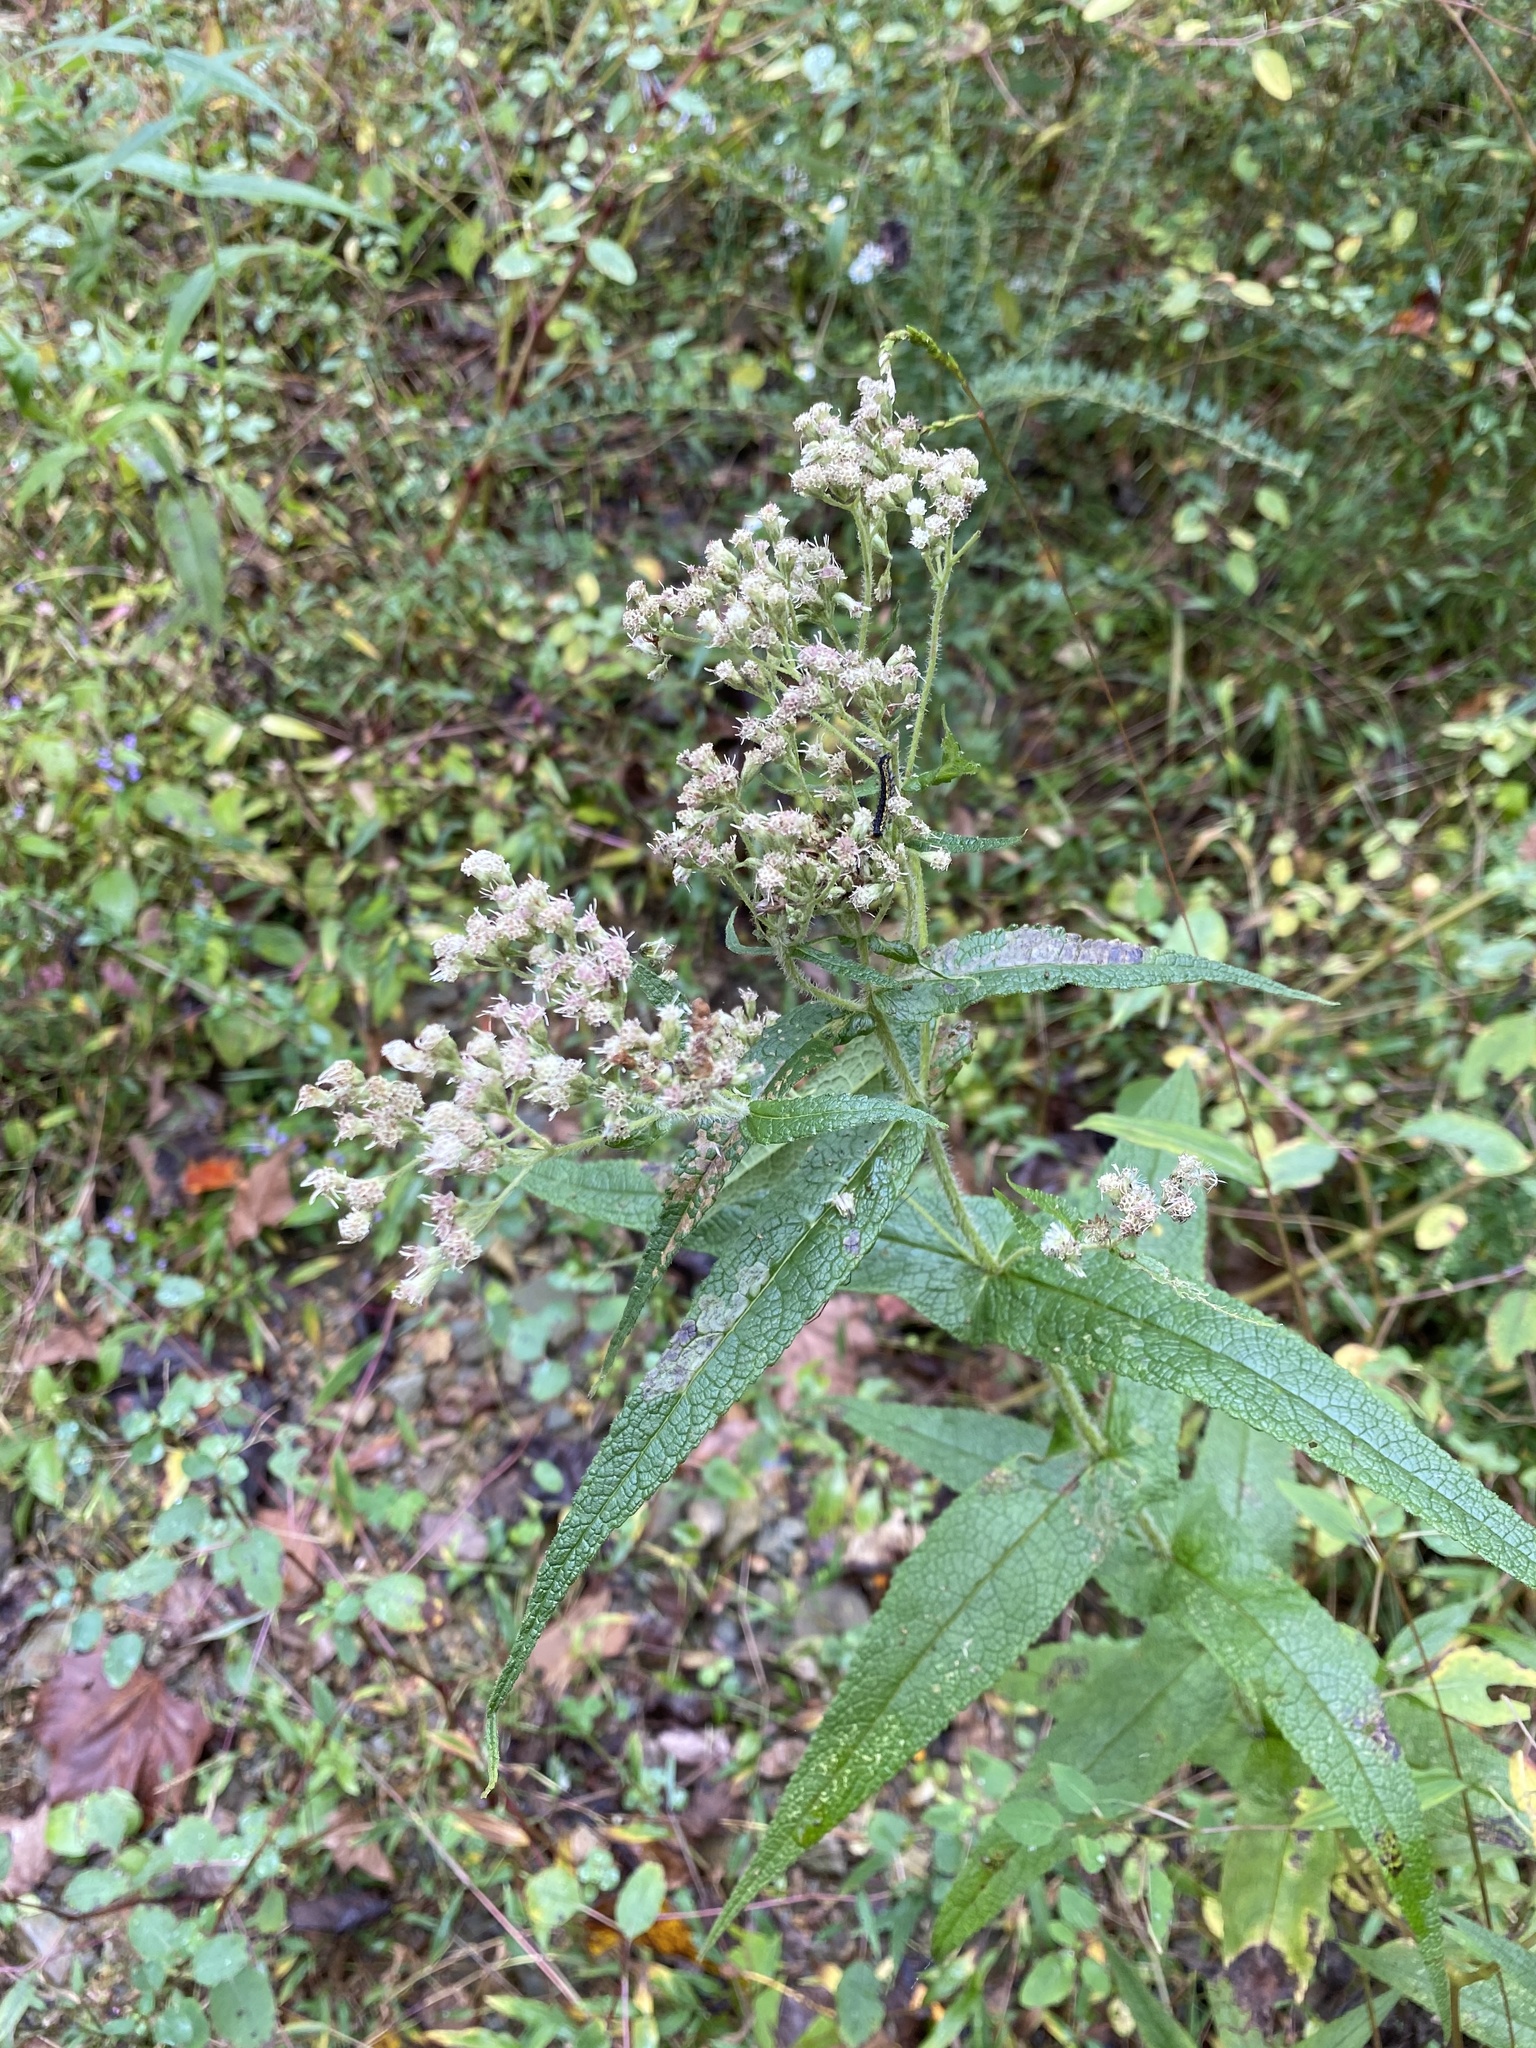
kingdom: Plantae
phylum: Tracheophyta
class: Magnoliopsida
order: Asterales
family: Asteraceae
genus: Eupatorium
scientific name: Eupatorium perfoliatum
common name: Boneset
